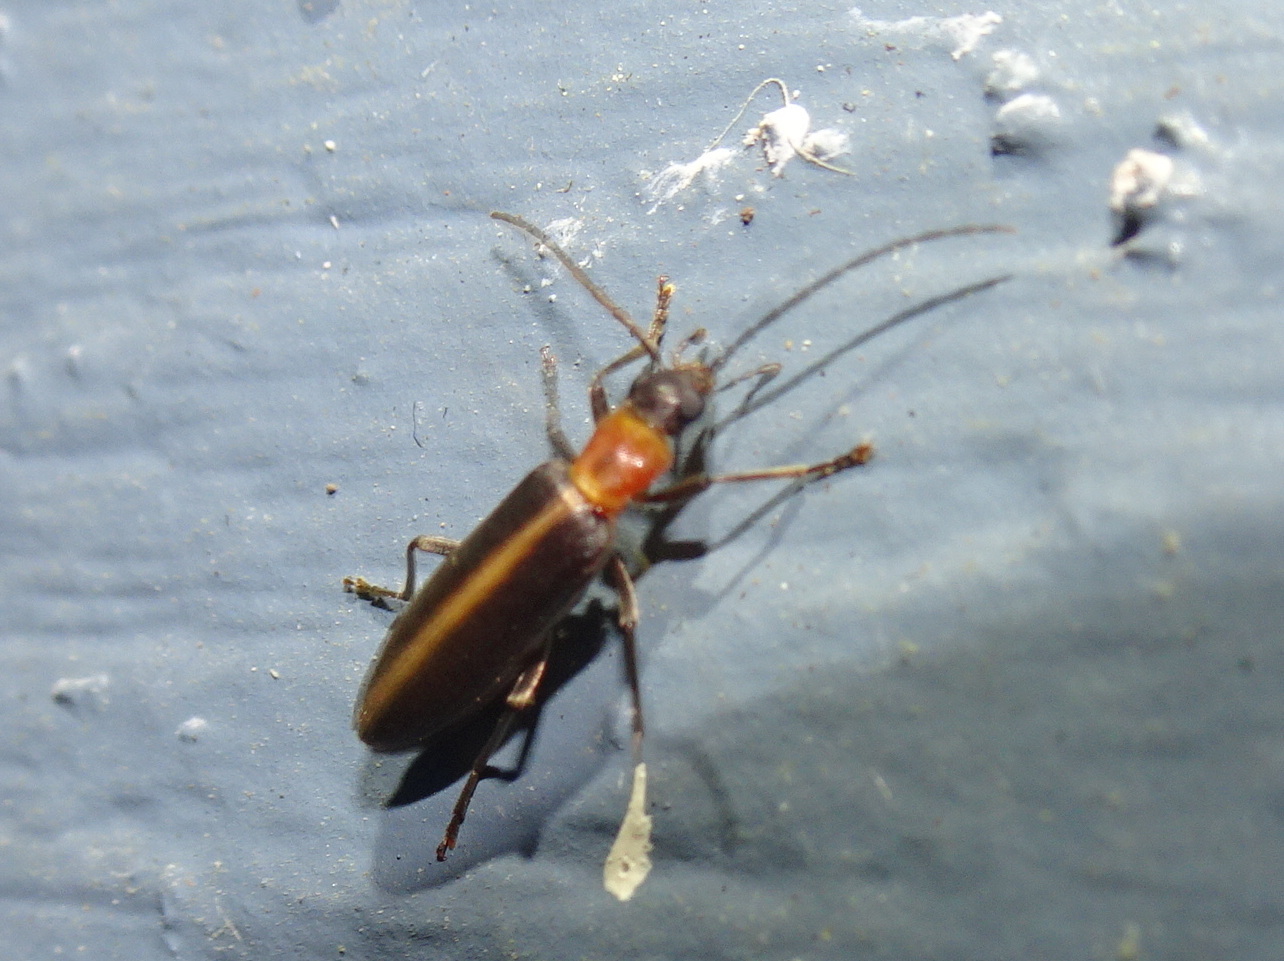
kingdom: Animalia
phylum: Arthropoda
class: Insecta
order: Coleoptera
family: Oedemeridae
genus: Oxycopis
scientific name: Oxycopis mimetica
